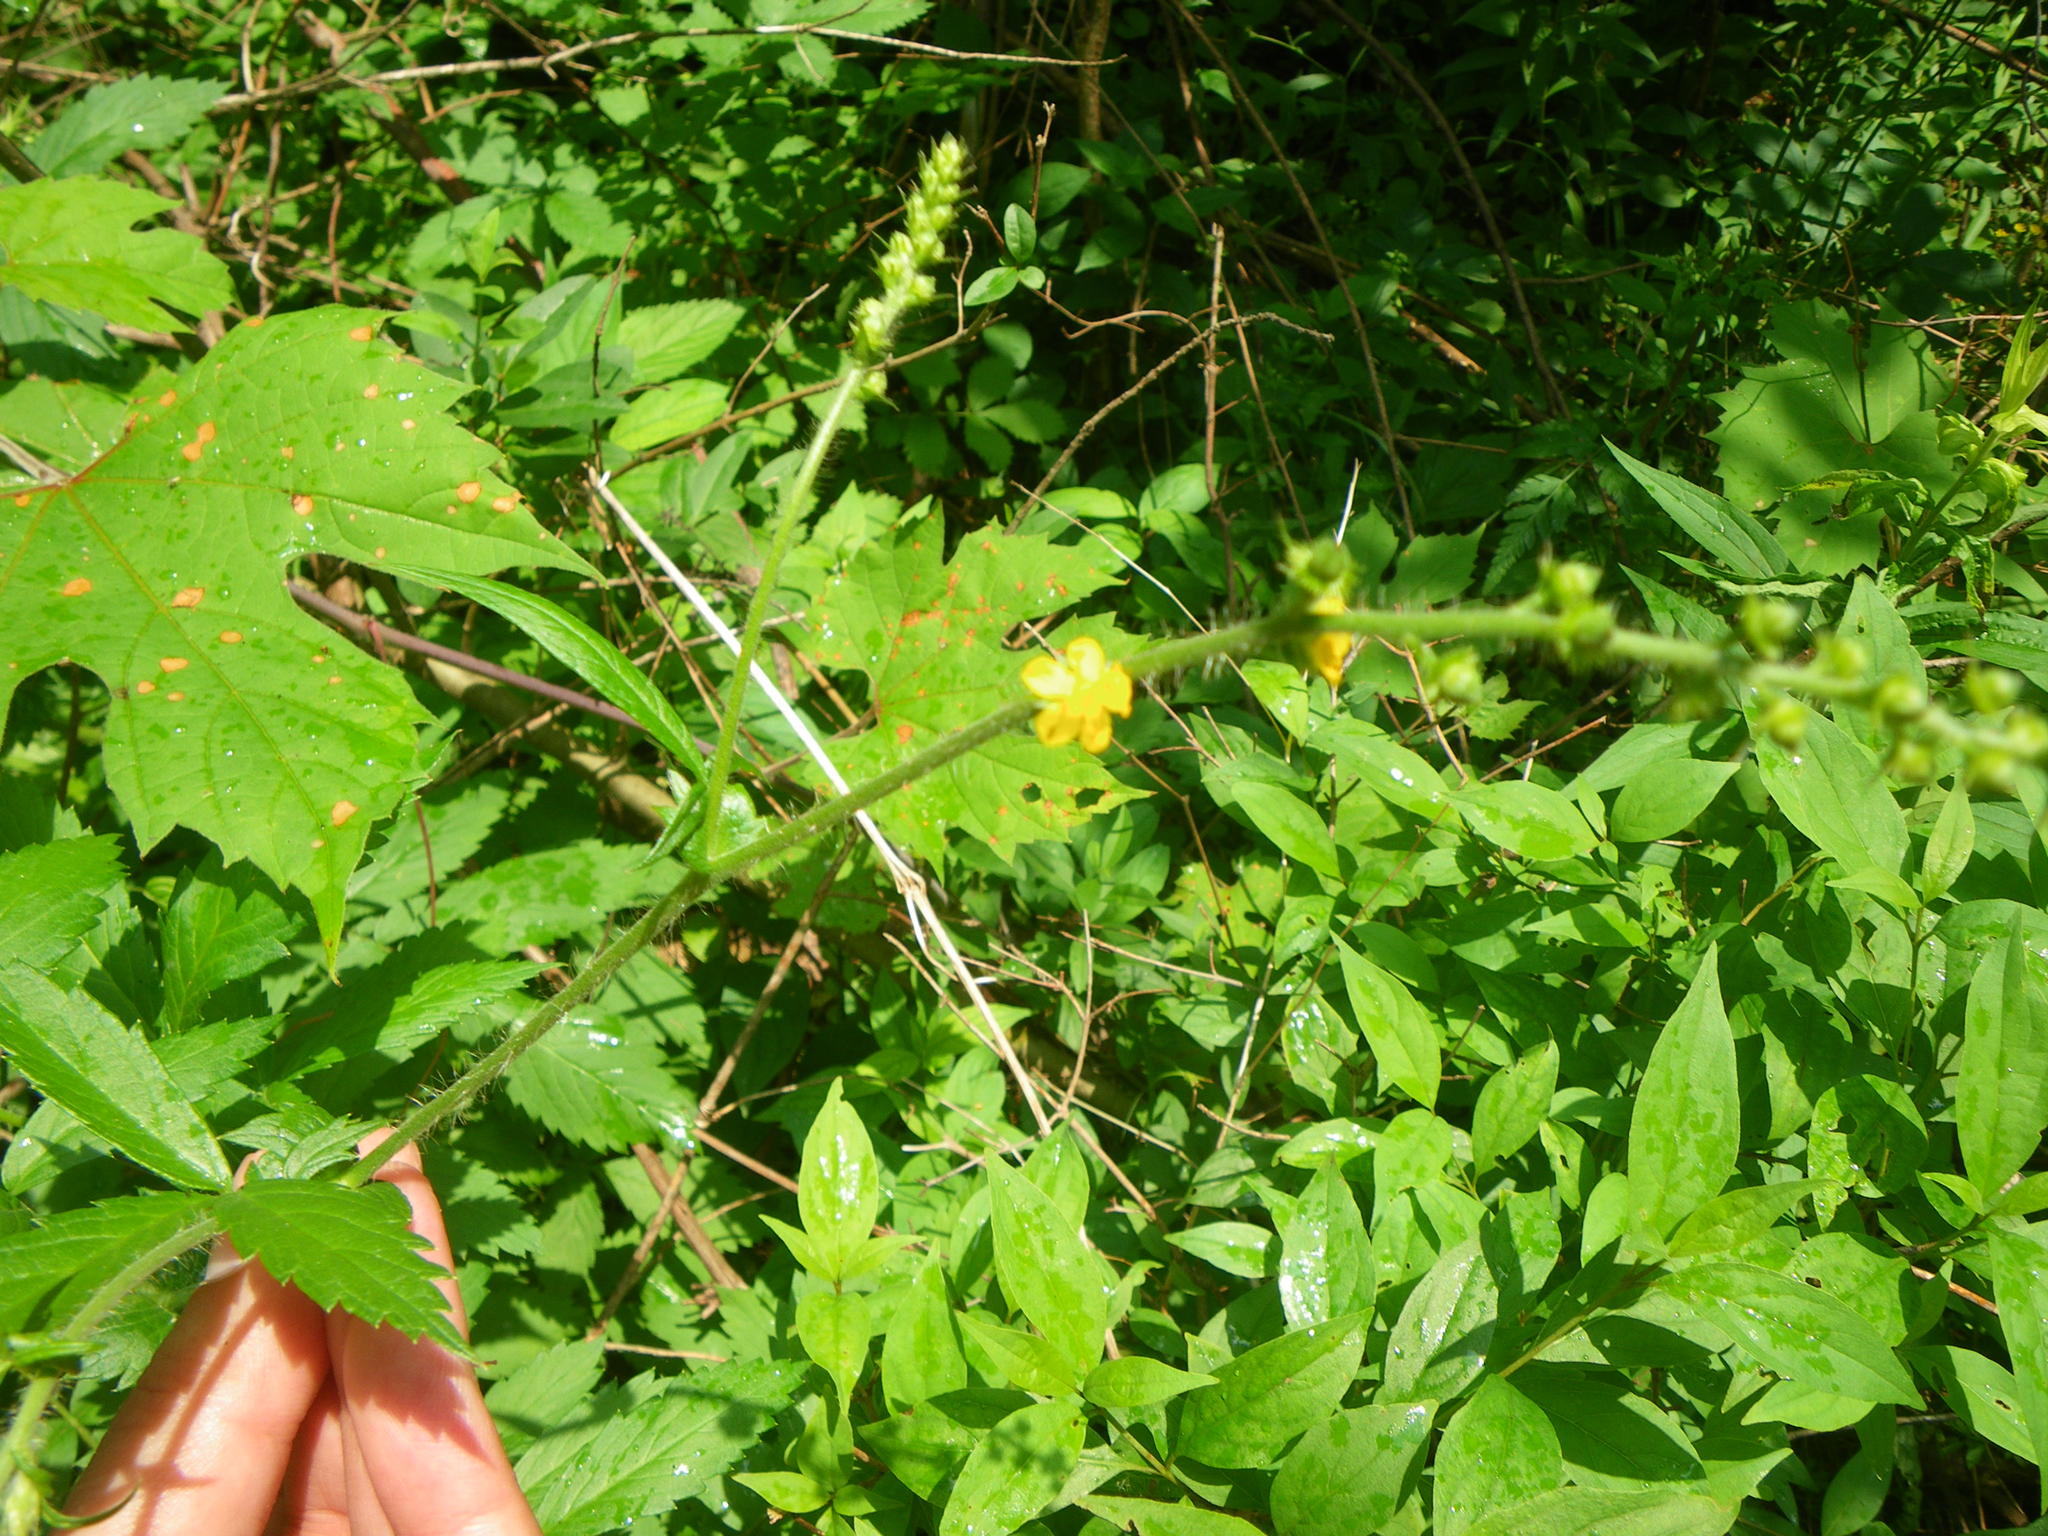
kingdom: Plantae
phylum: Tracheophyta
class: Magnoliopsida
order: Rosales
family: Rosaceae
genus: Agrimonia
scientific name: Agrimonia gryposepala
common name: Common agrimony
